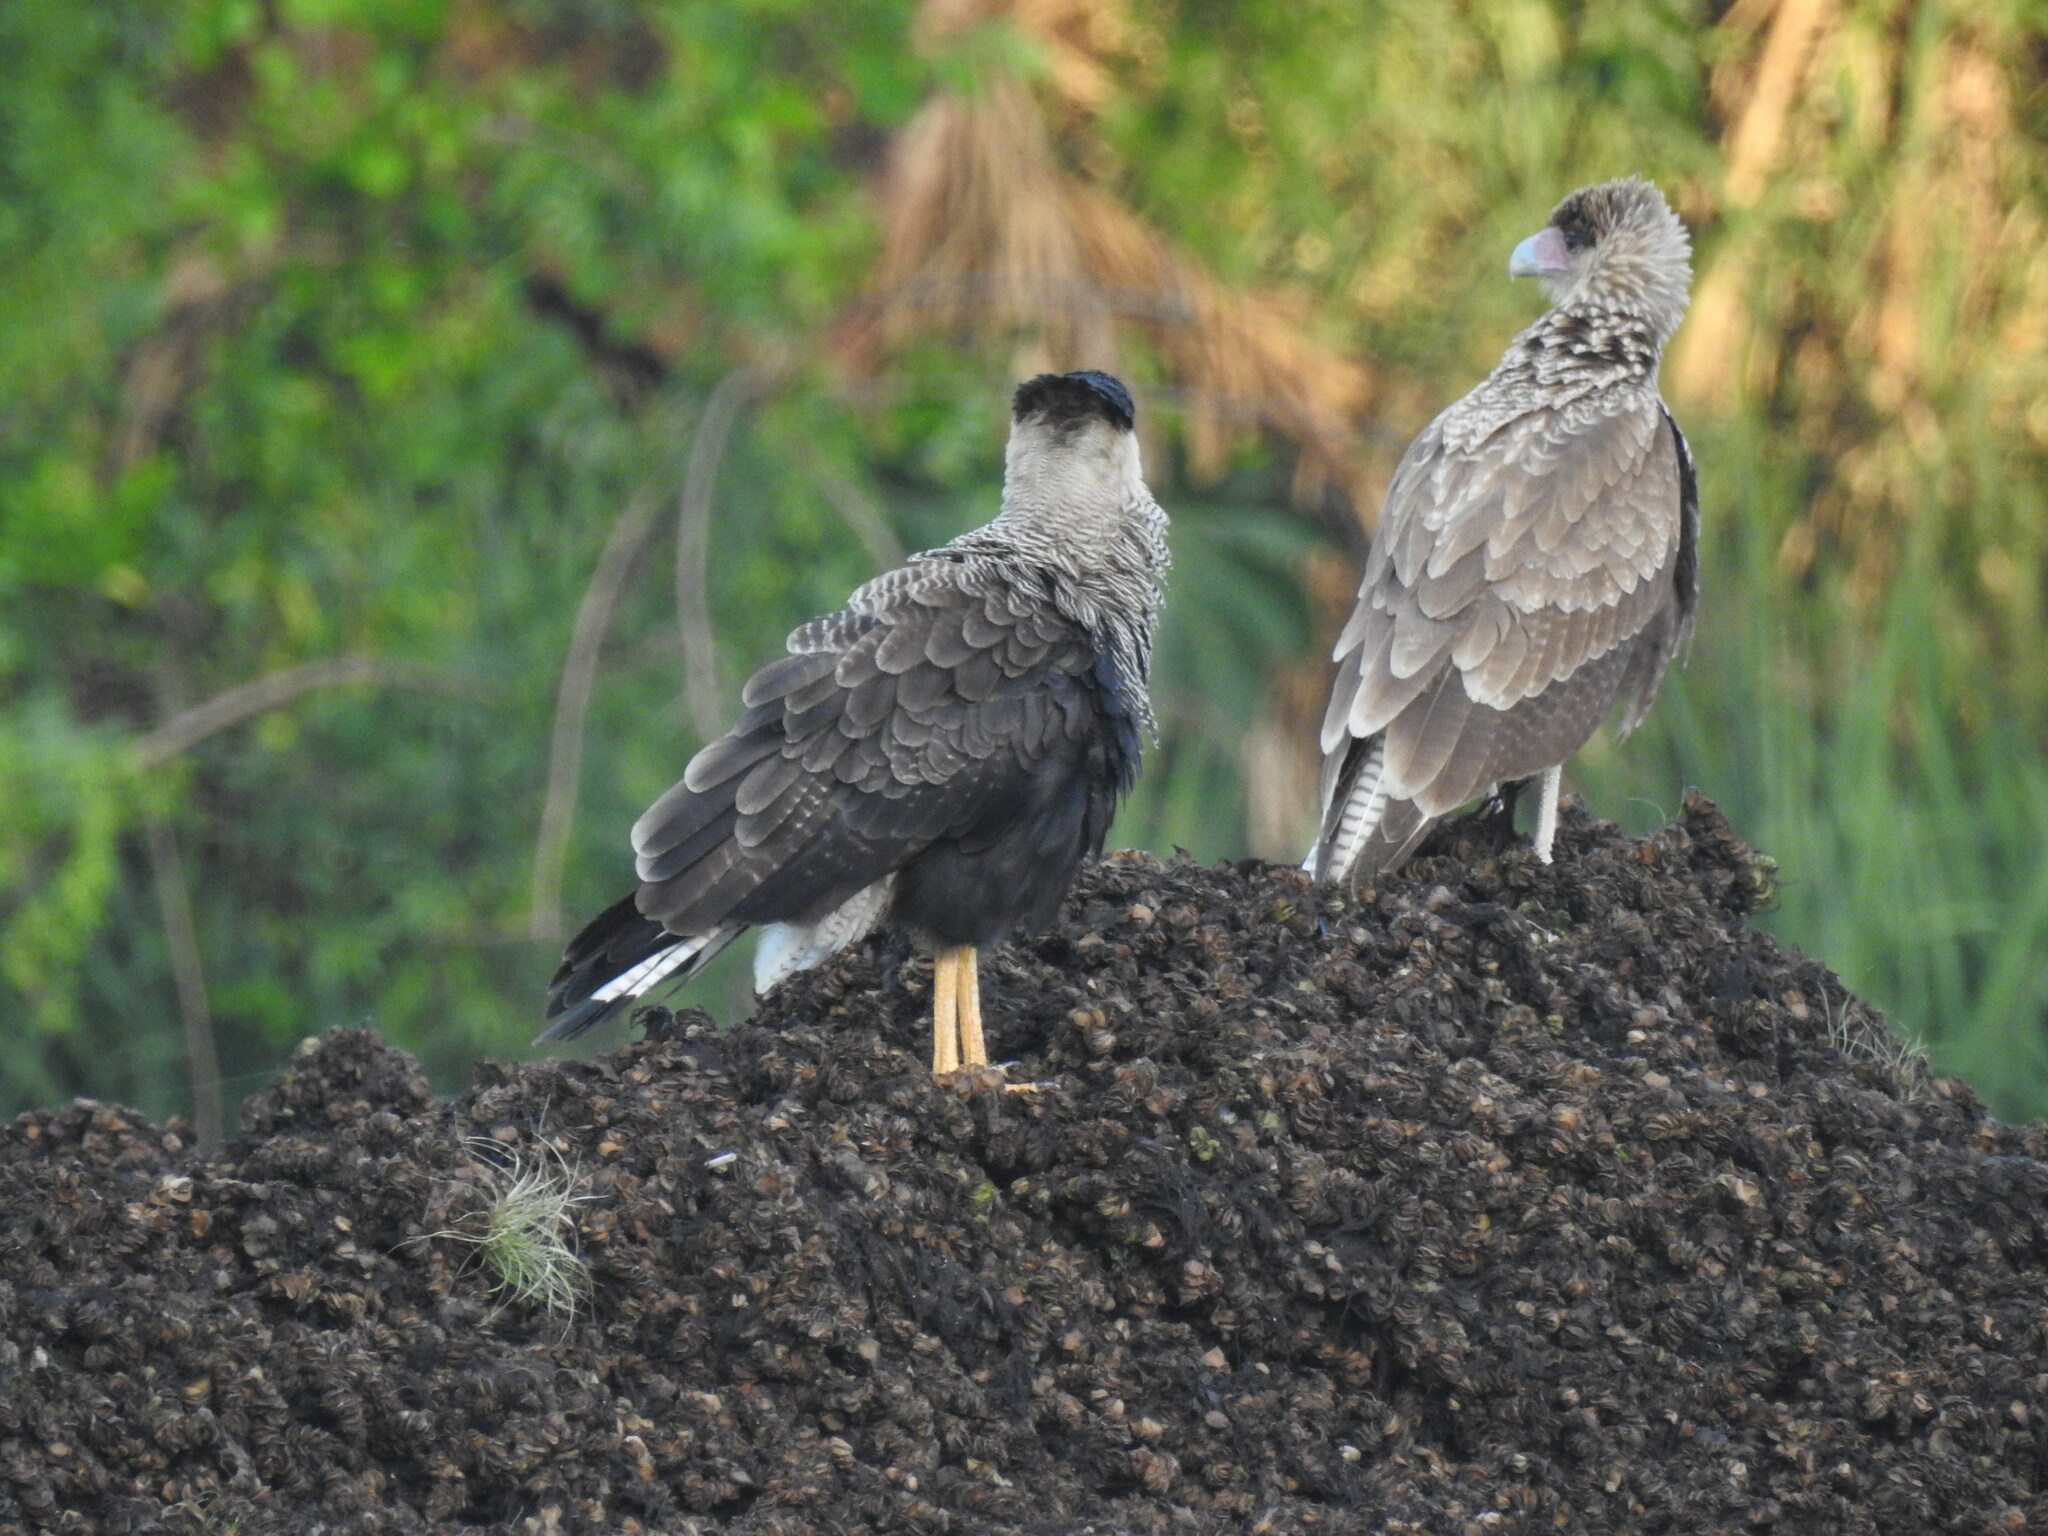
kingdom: Animalia
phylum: Chordata
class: Aves
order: Falconiformes
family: Falconidae
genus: Caracara
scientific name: Caracara plancus
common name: Southern caracara
